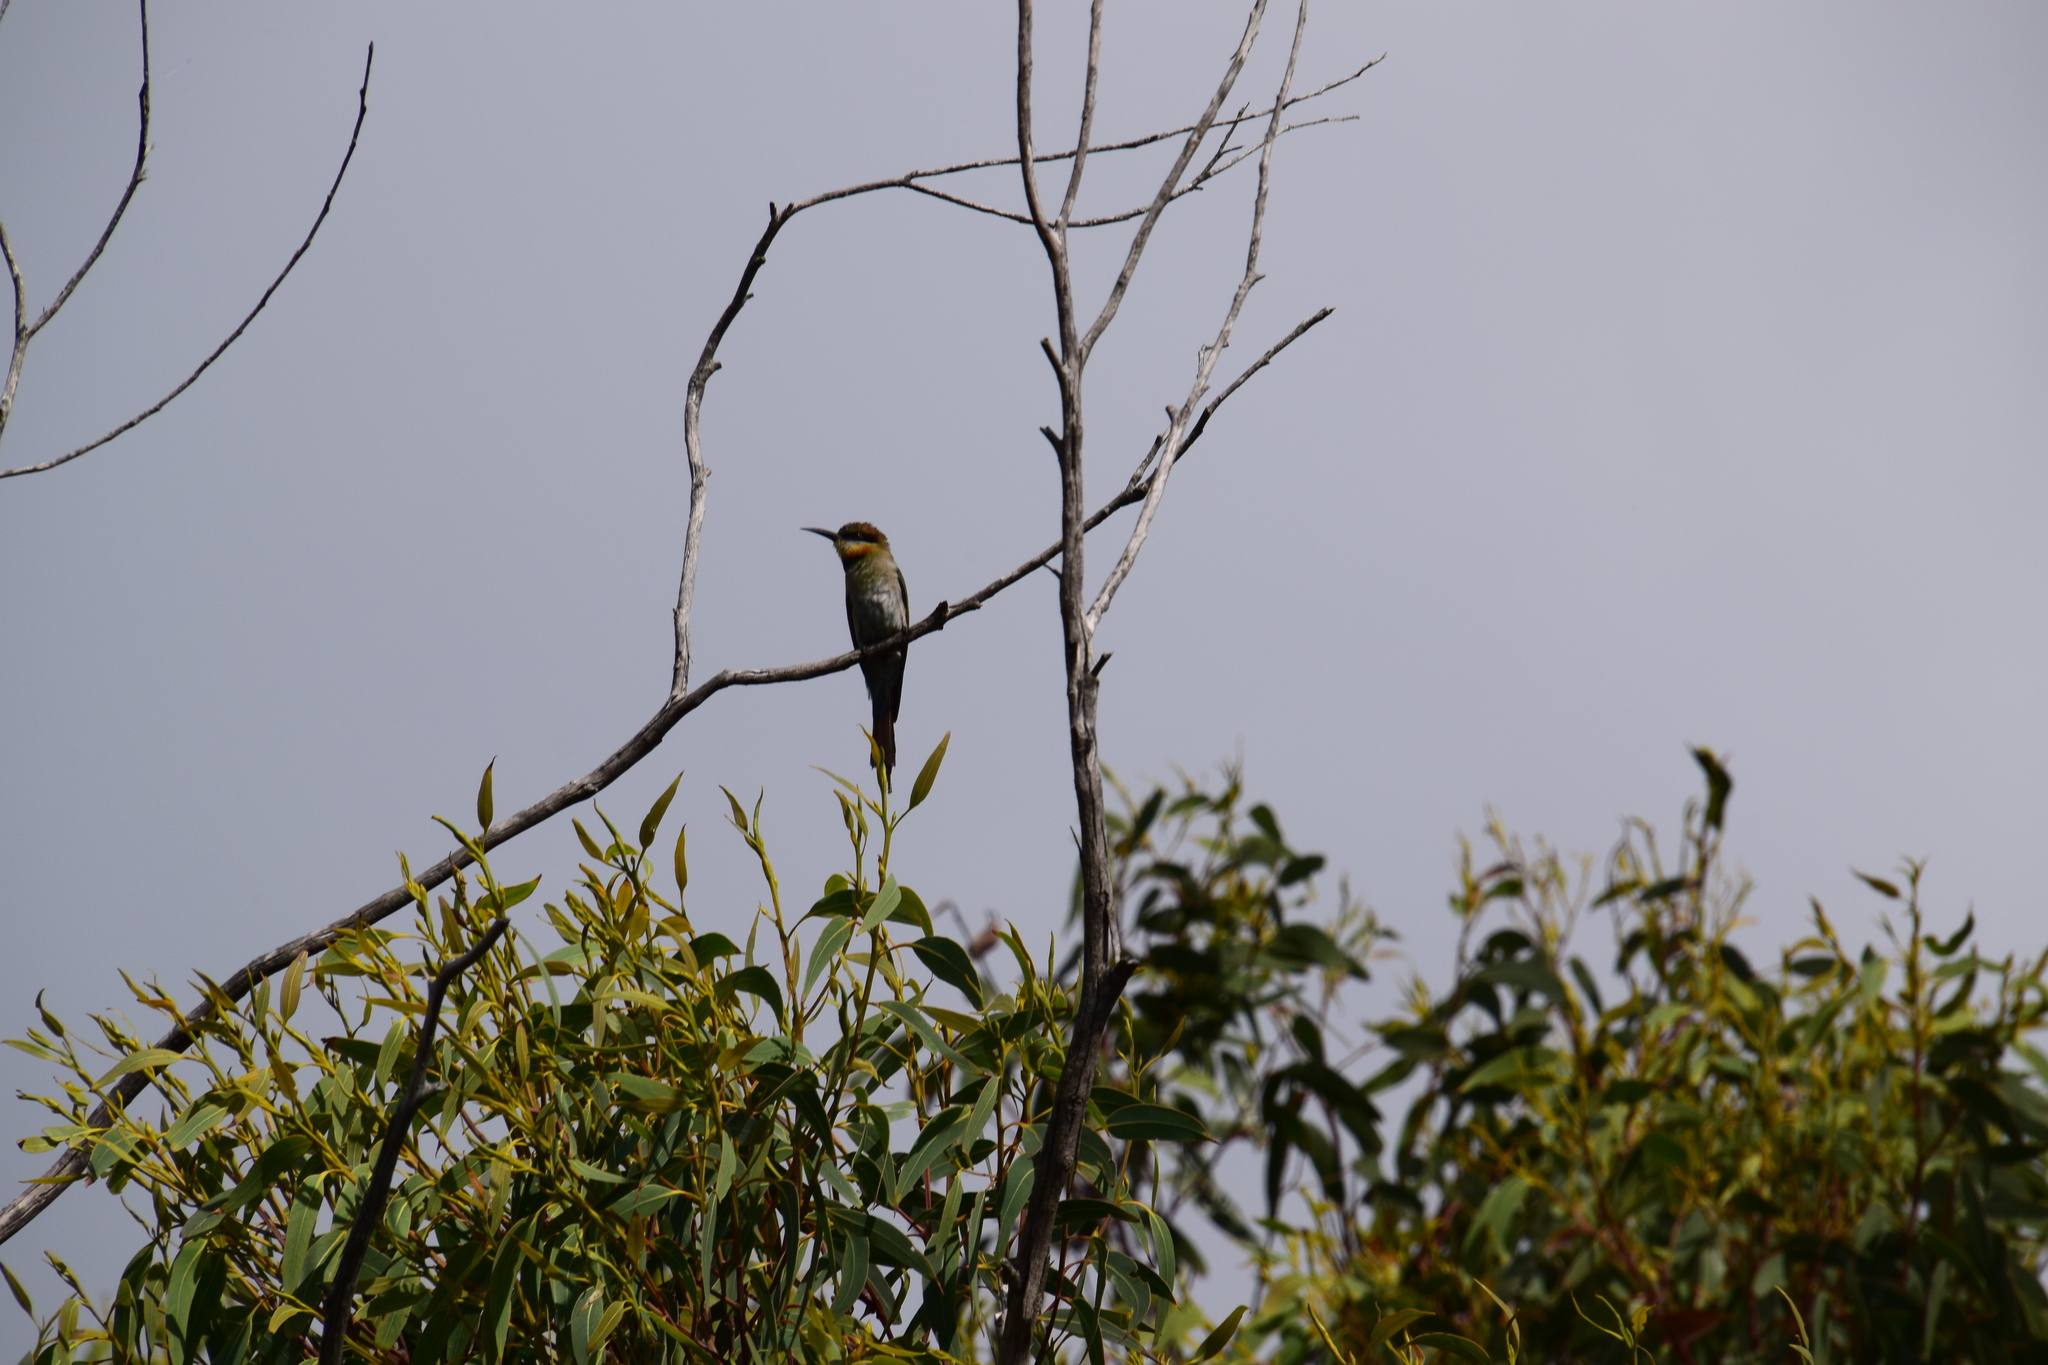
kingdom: Animalia
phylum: Chordata
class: Aves
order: Coraciiformes
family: Meropidae
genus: Merops
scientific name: Merops ornatus
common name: Rainbow bee-eater
